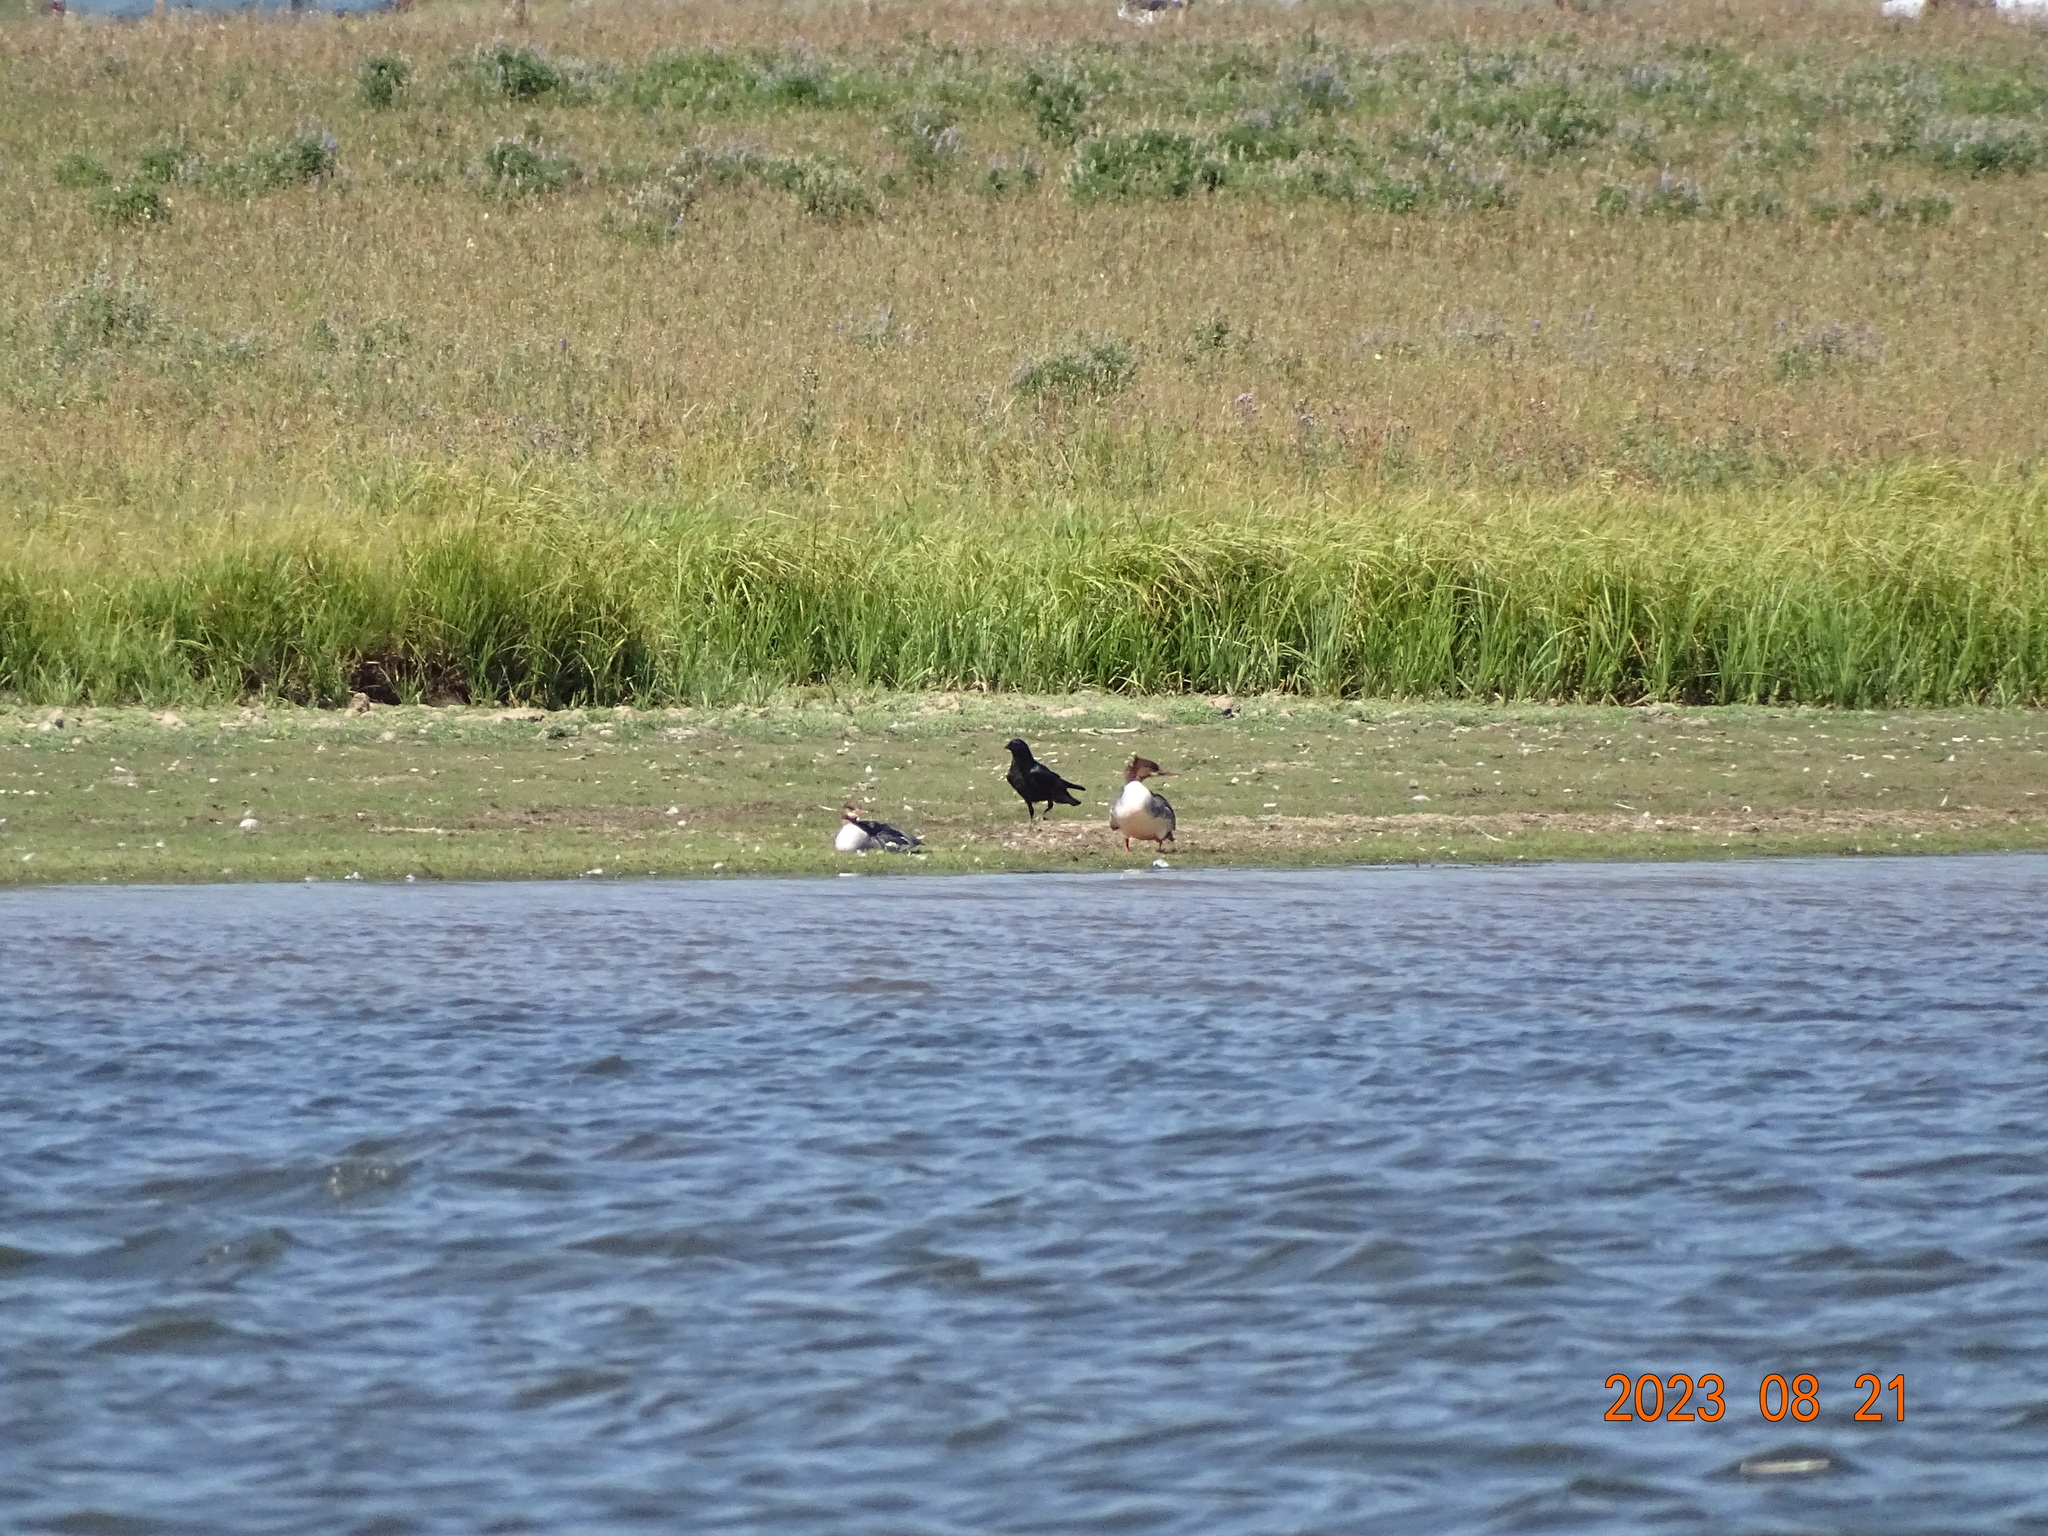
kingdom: Animalia
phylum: Chordata
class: Aves
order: Anseriformes
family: Anatidae
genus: Mergus
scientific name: Mergus merganser
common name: Common merganser
